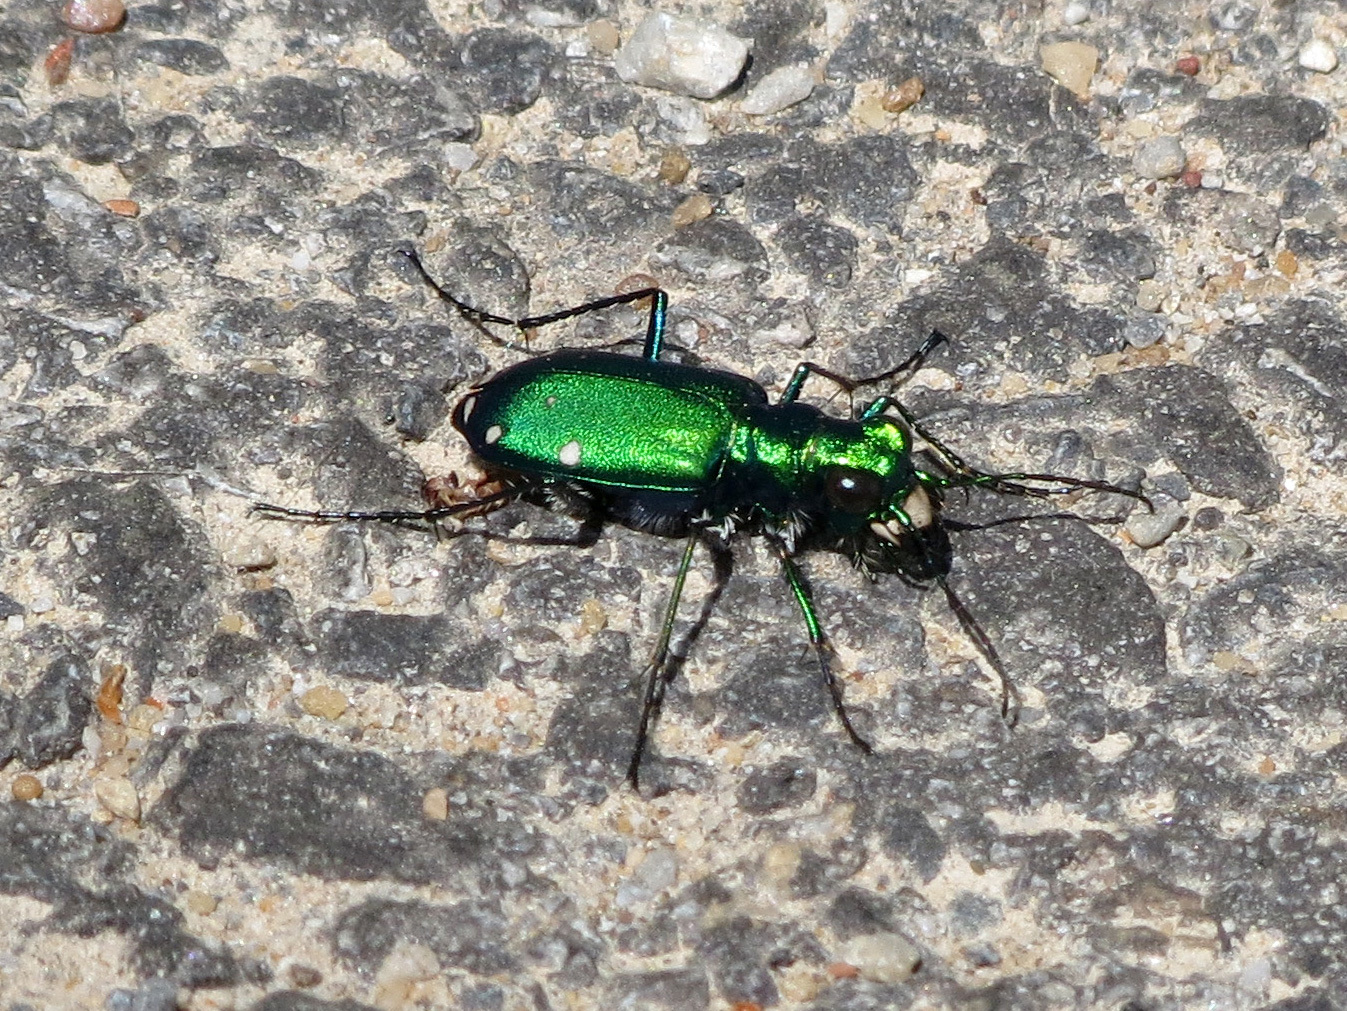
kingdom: Animalia
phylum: Arthropoda
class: Insecta
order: Coleoptera
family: Carabidae
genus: Cicindela
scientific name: Cicindela sexguttata
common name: Six-spotted tiger beetle
